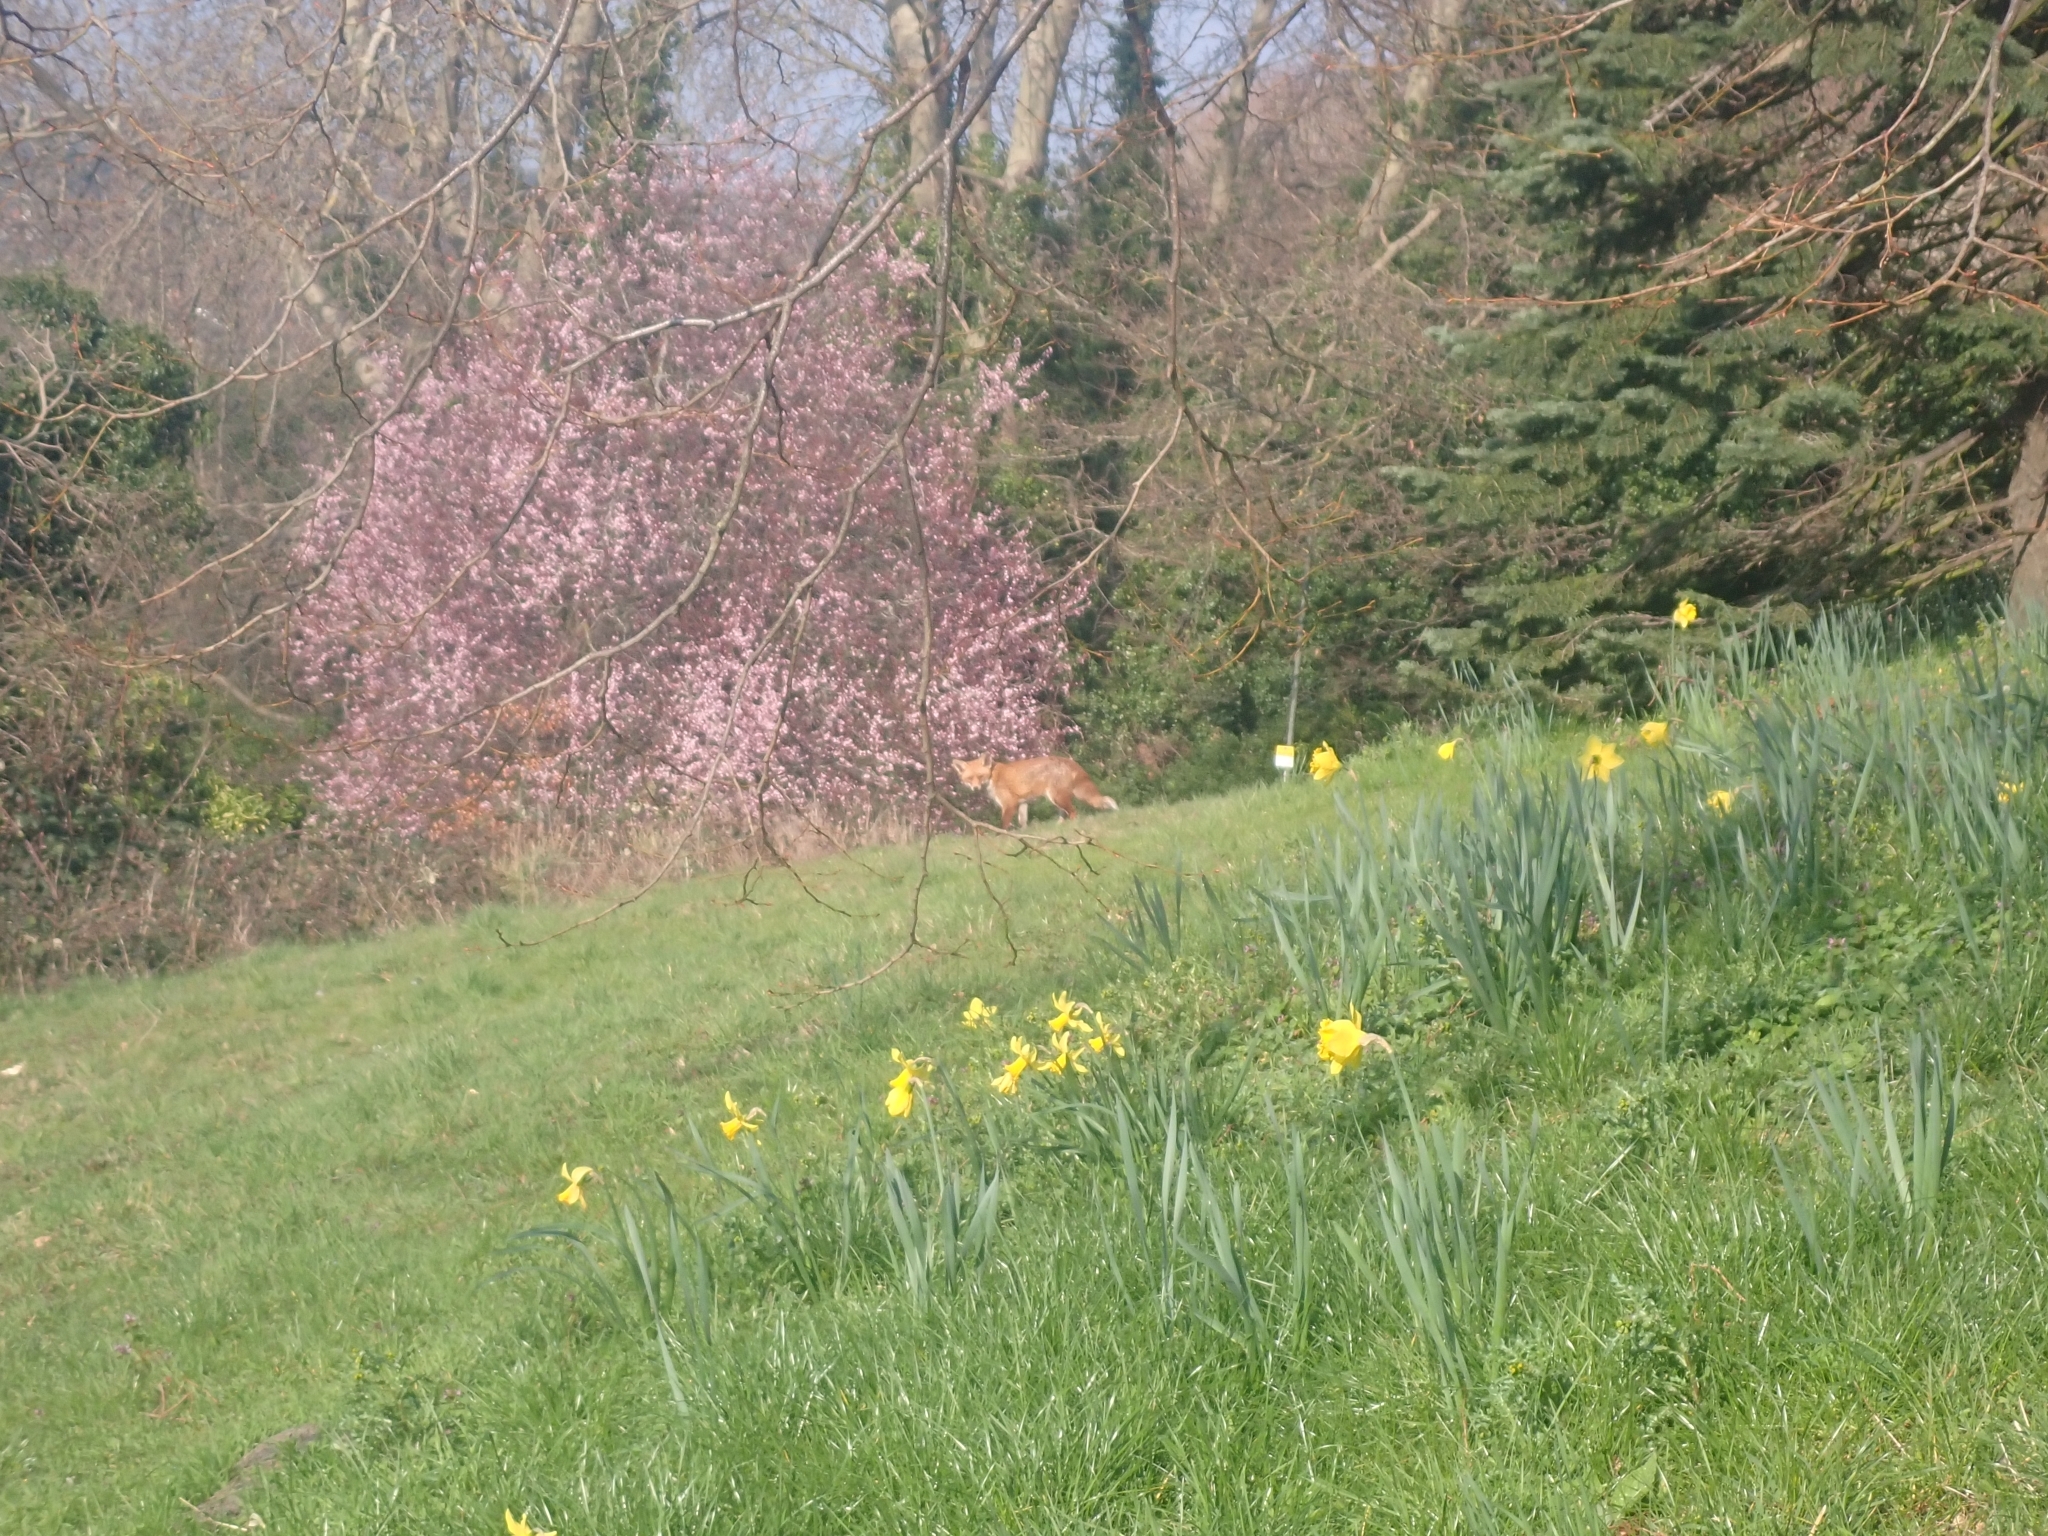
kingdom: Animalia
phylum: Chordata
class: Mammalia
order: Carnivora
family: Canidae
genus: Vulpes
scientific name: Vulpes vulpes
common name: Red fox
